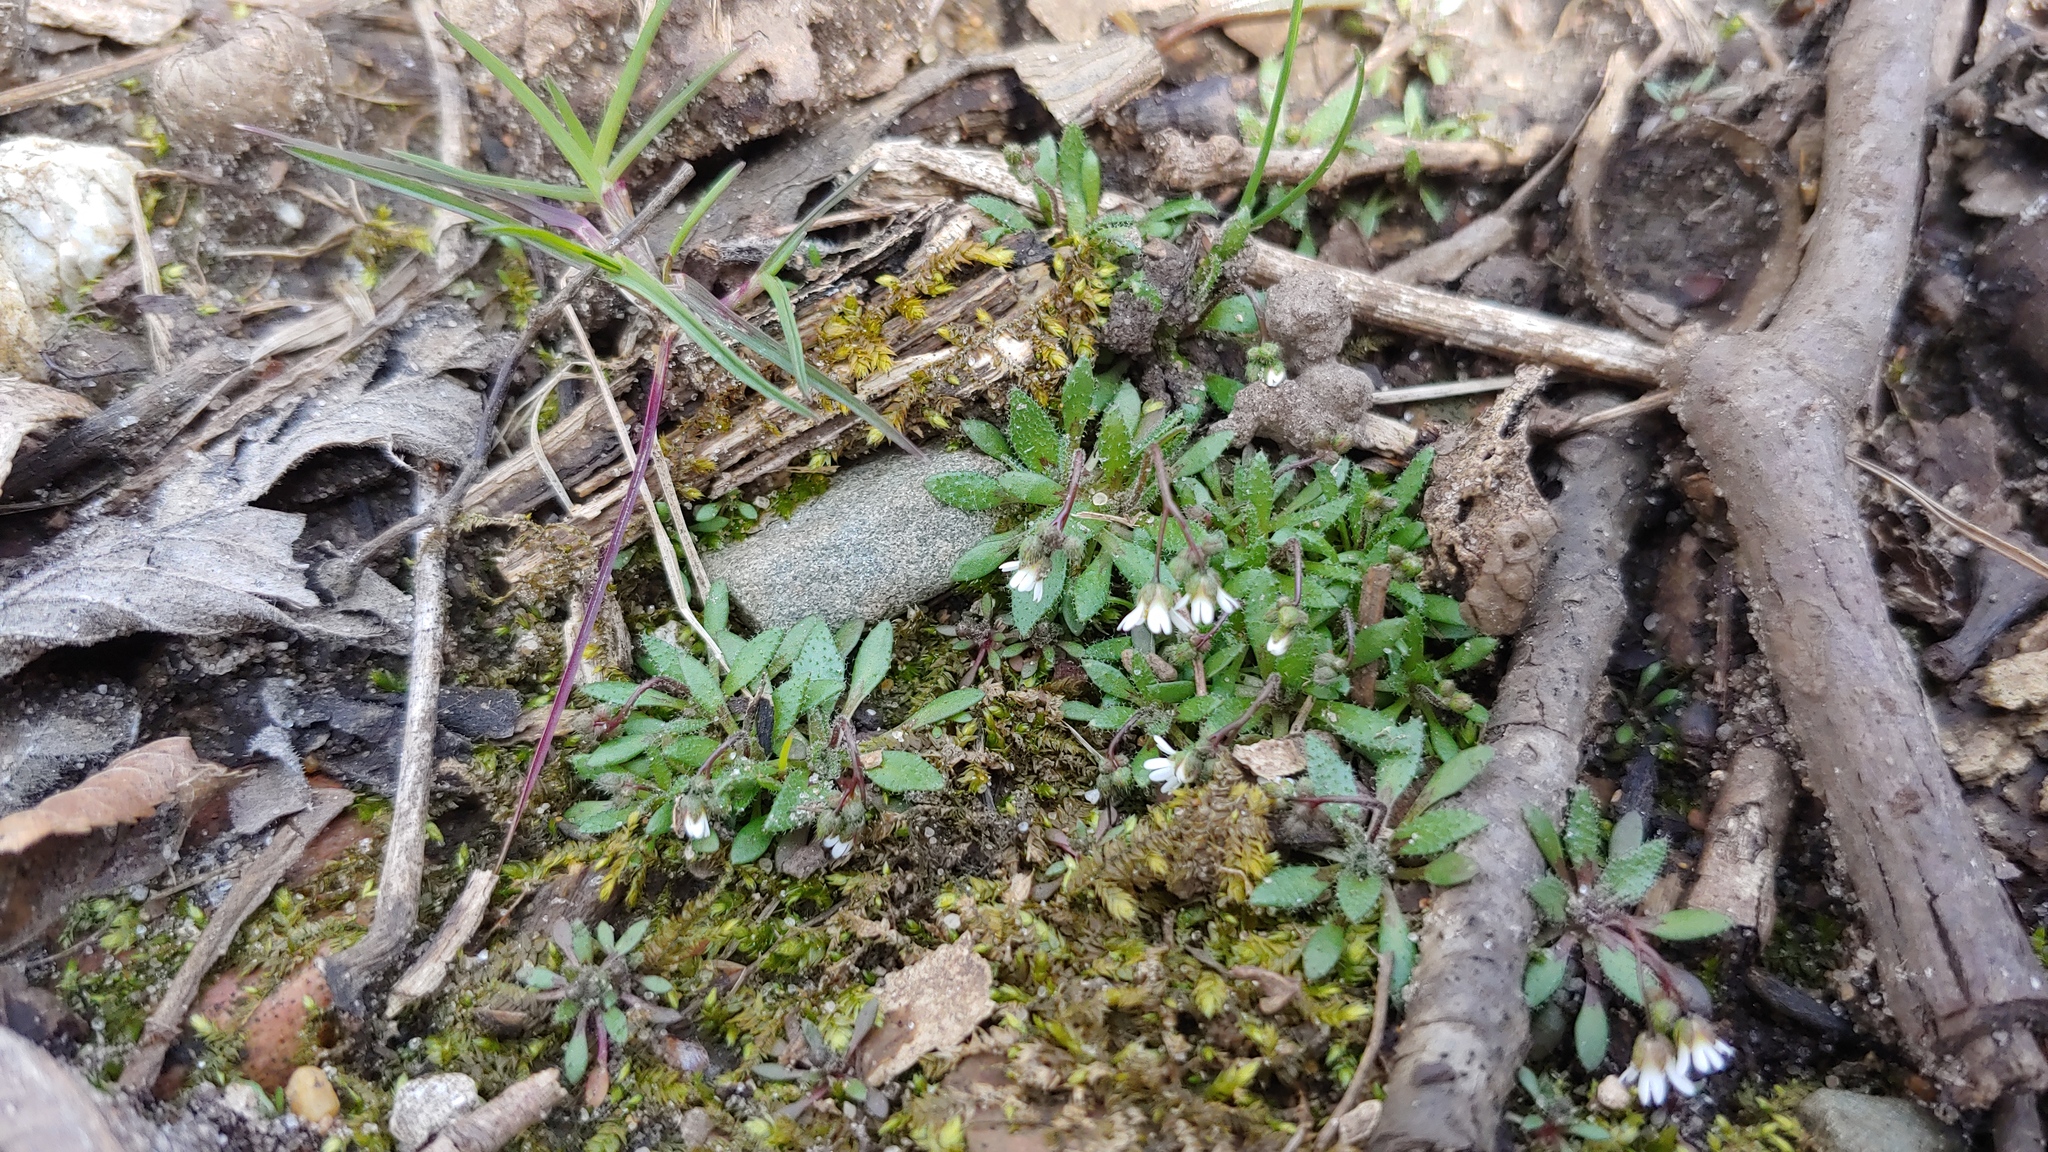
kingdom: Plantae
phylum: Tracheophyta
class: Magnoliopsida
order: Brassicales
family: Brassicaceae
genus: Draba
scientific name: Draba verna
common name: Spring draba
